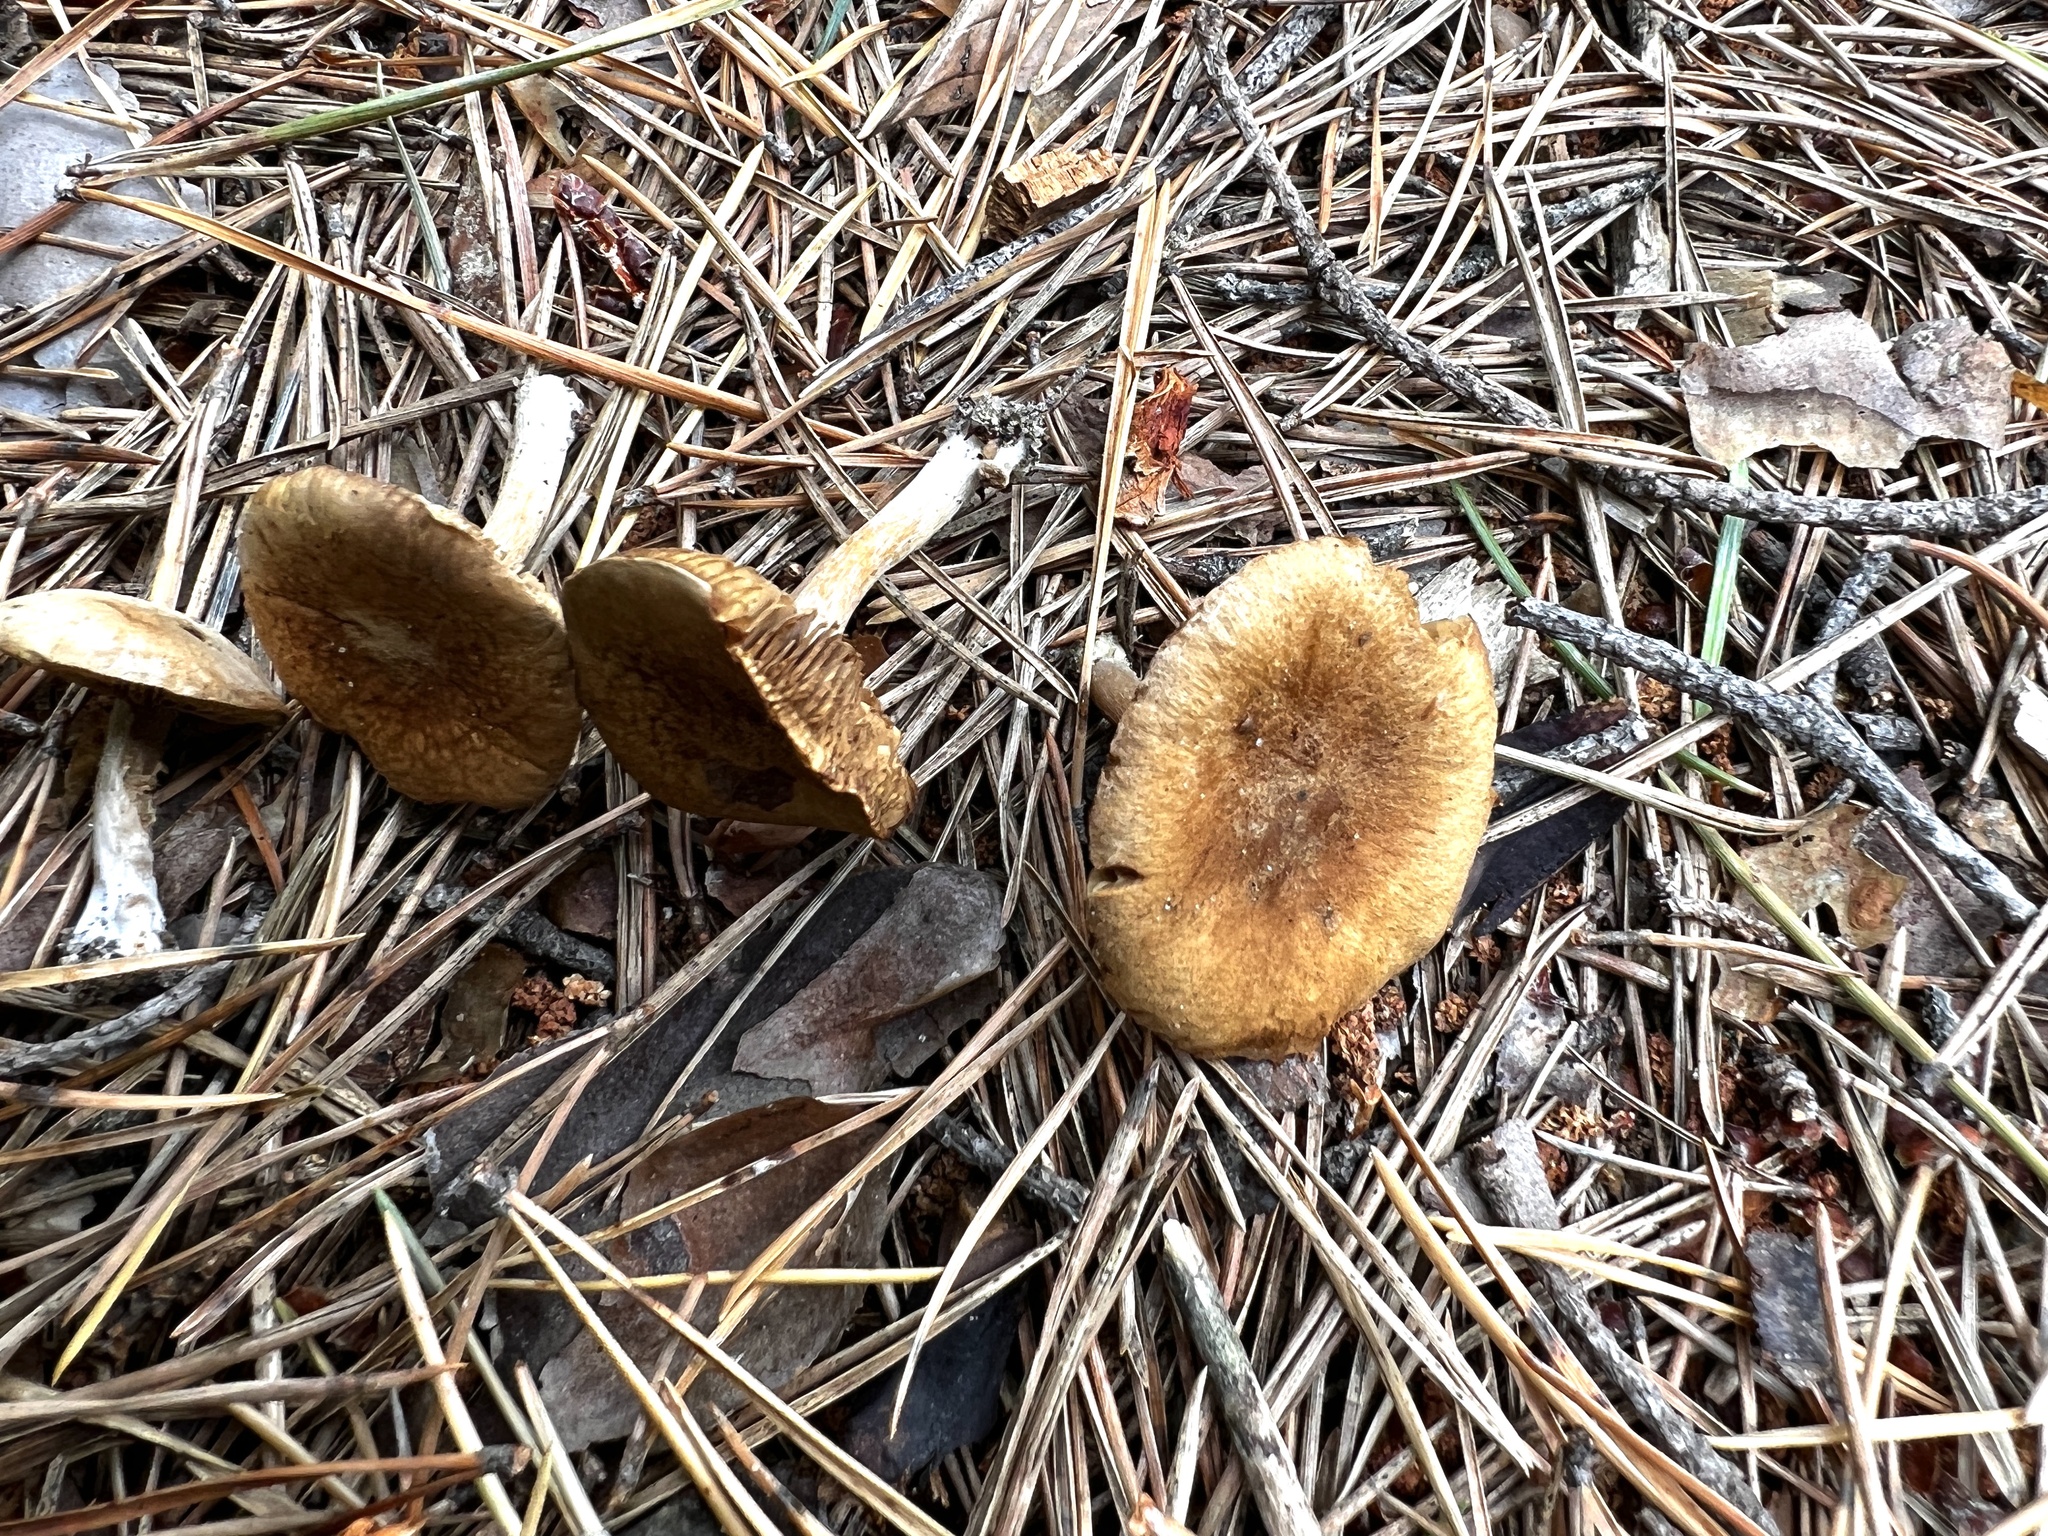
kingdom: Fungi
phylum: Basidiomycota
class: Agaricomycetes
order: Agaricales
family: Inocybaceae
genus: Mallocybe
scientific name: Mallocybe
